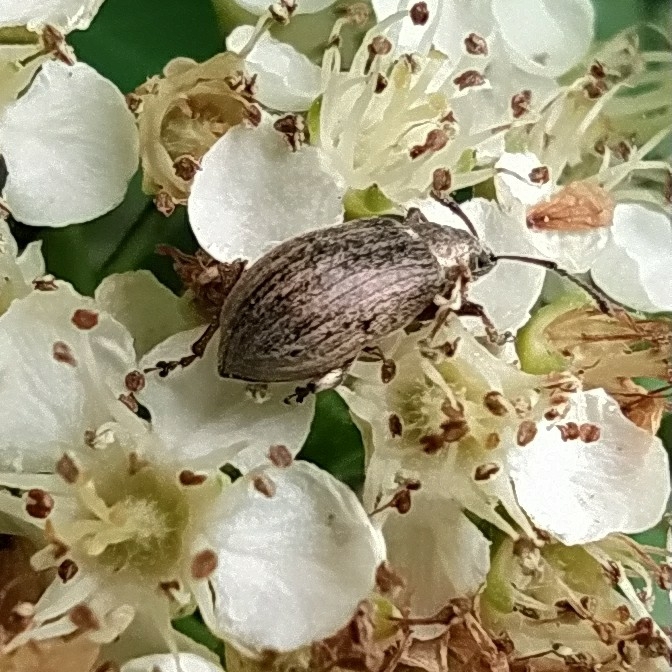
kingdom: Animalia
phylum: Arthropoda
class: Insecta
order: Coleoptera
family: Curculionidae
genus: Phyllobius
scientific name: Phyllobius pyri
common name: Common leaf weevil
